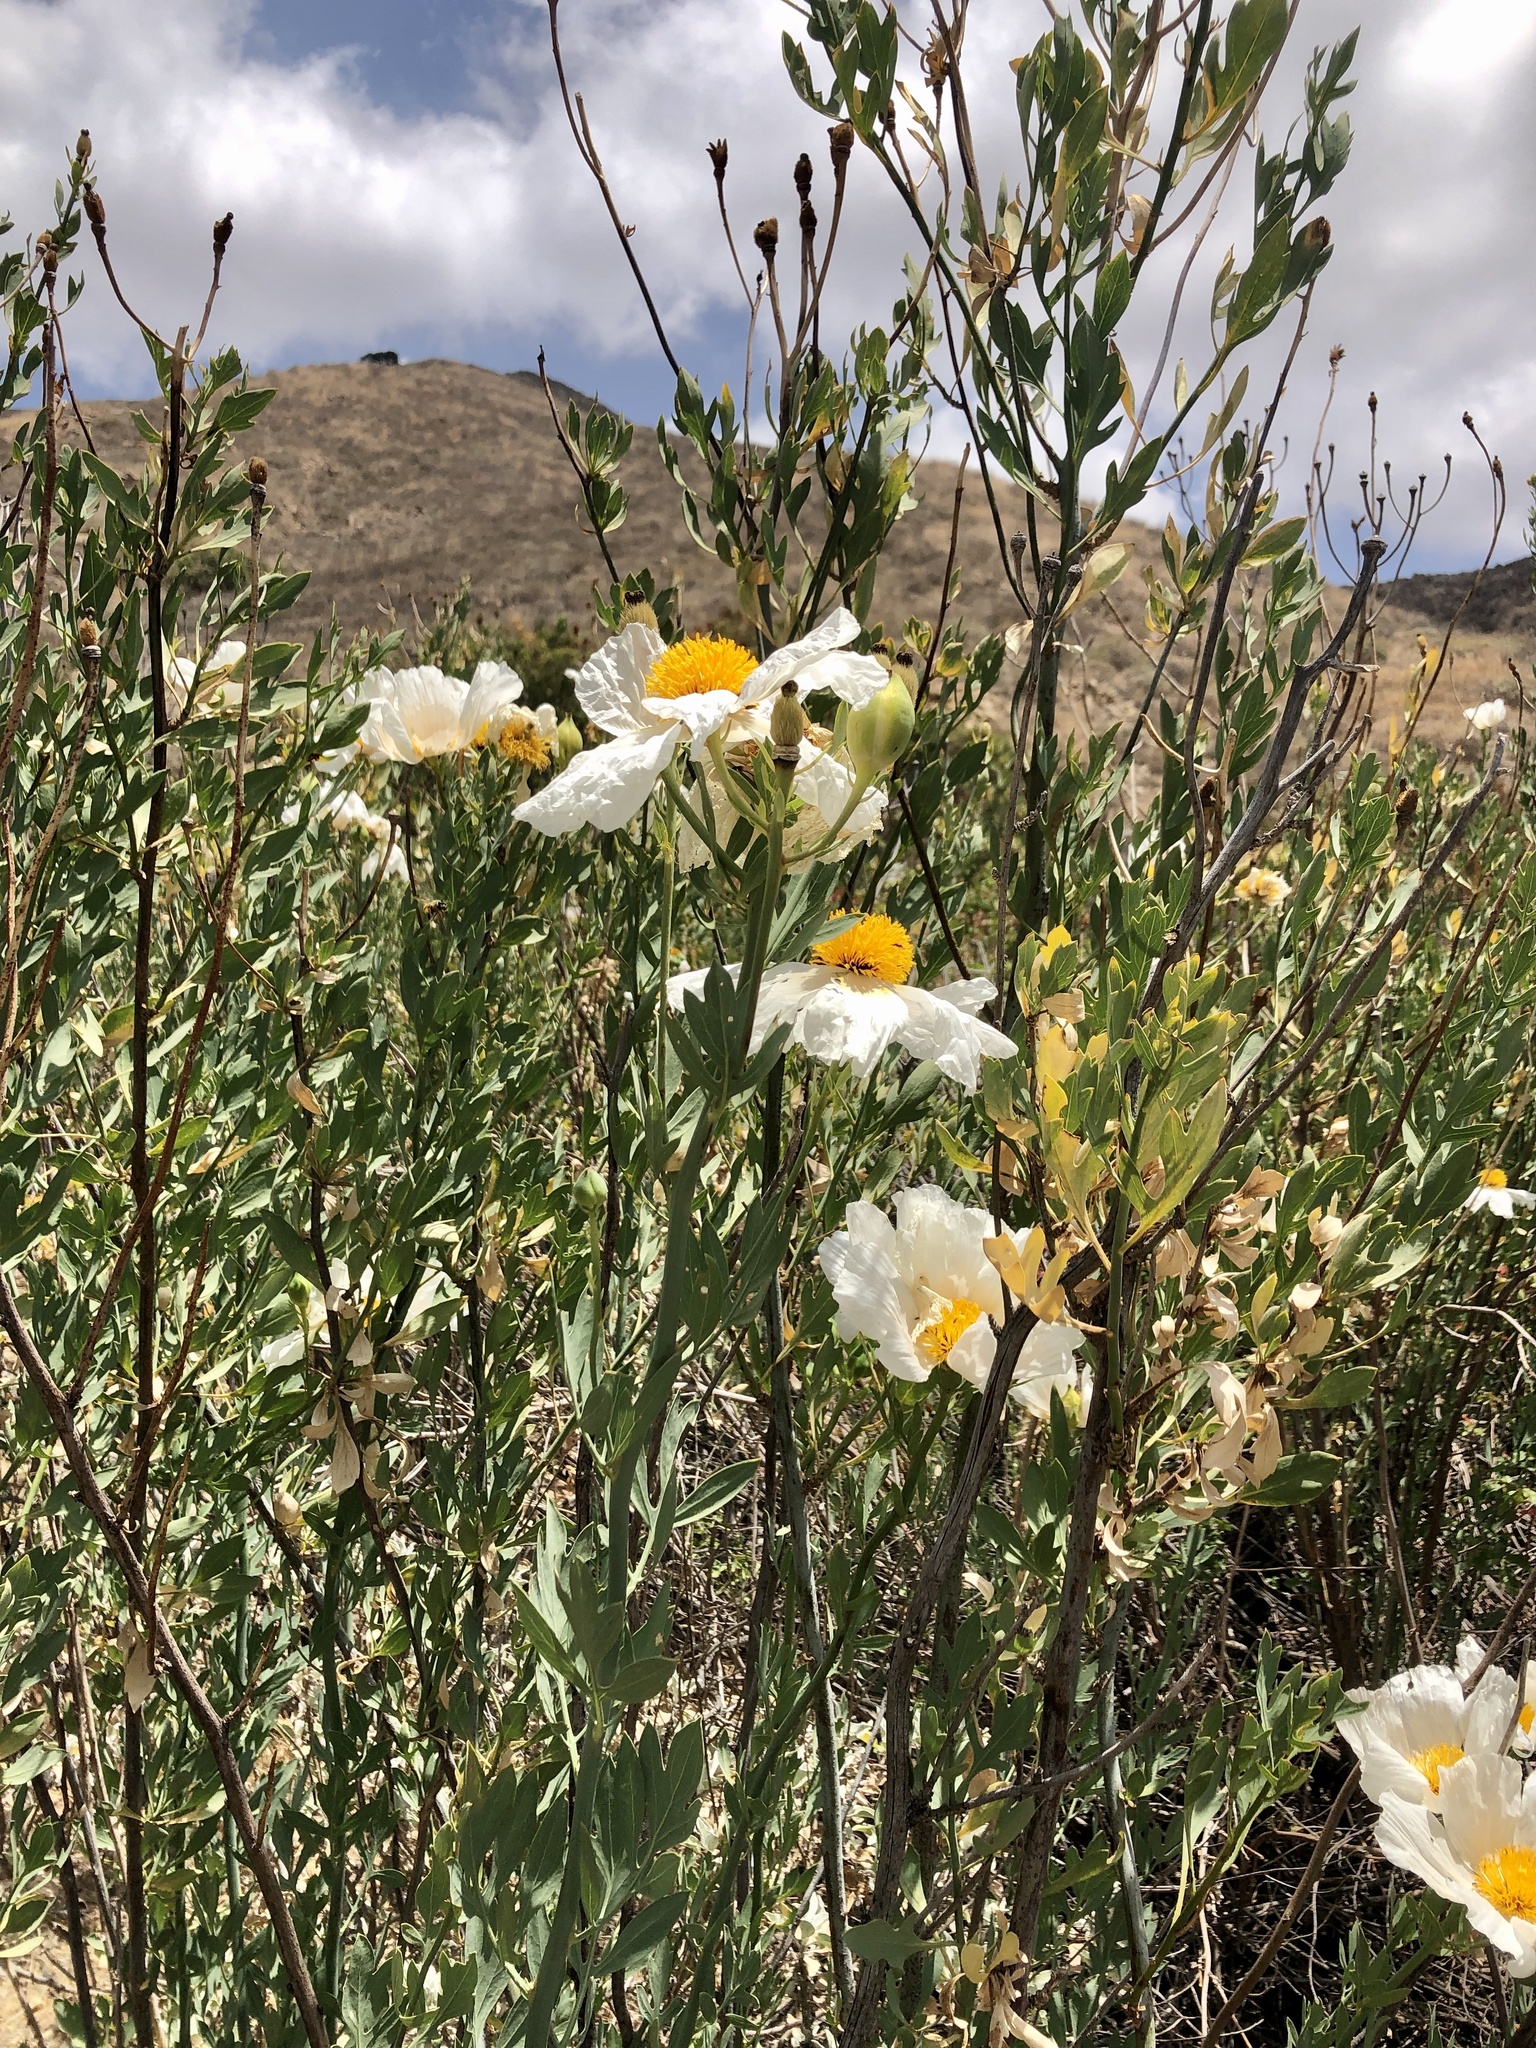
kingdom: Plantae
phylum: Tracheophyta
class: Magnoliopsida
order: Ranunculales
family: Papaveraceae
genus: Romneya
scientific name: Romneya coulteri
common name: California tree-poppy
